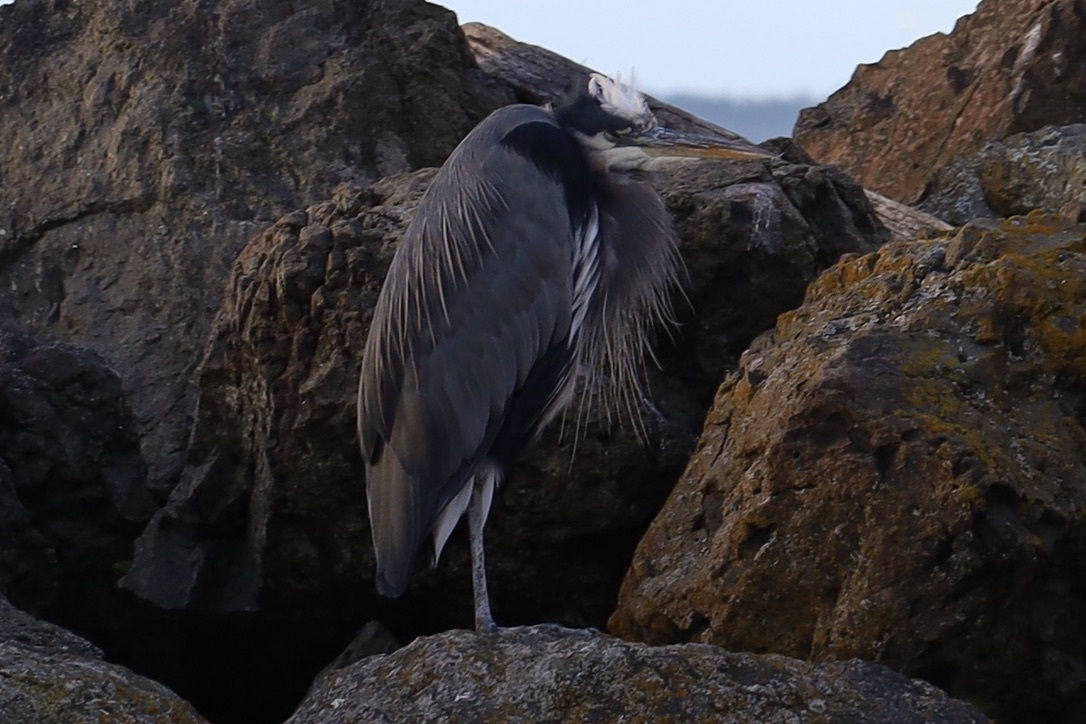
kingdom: Animalia
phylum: Chordata
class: Aves
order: Pelecaniformes
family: Ardeidae
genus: Ardea
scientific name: Ardea herodias
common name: Great blue heron
